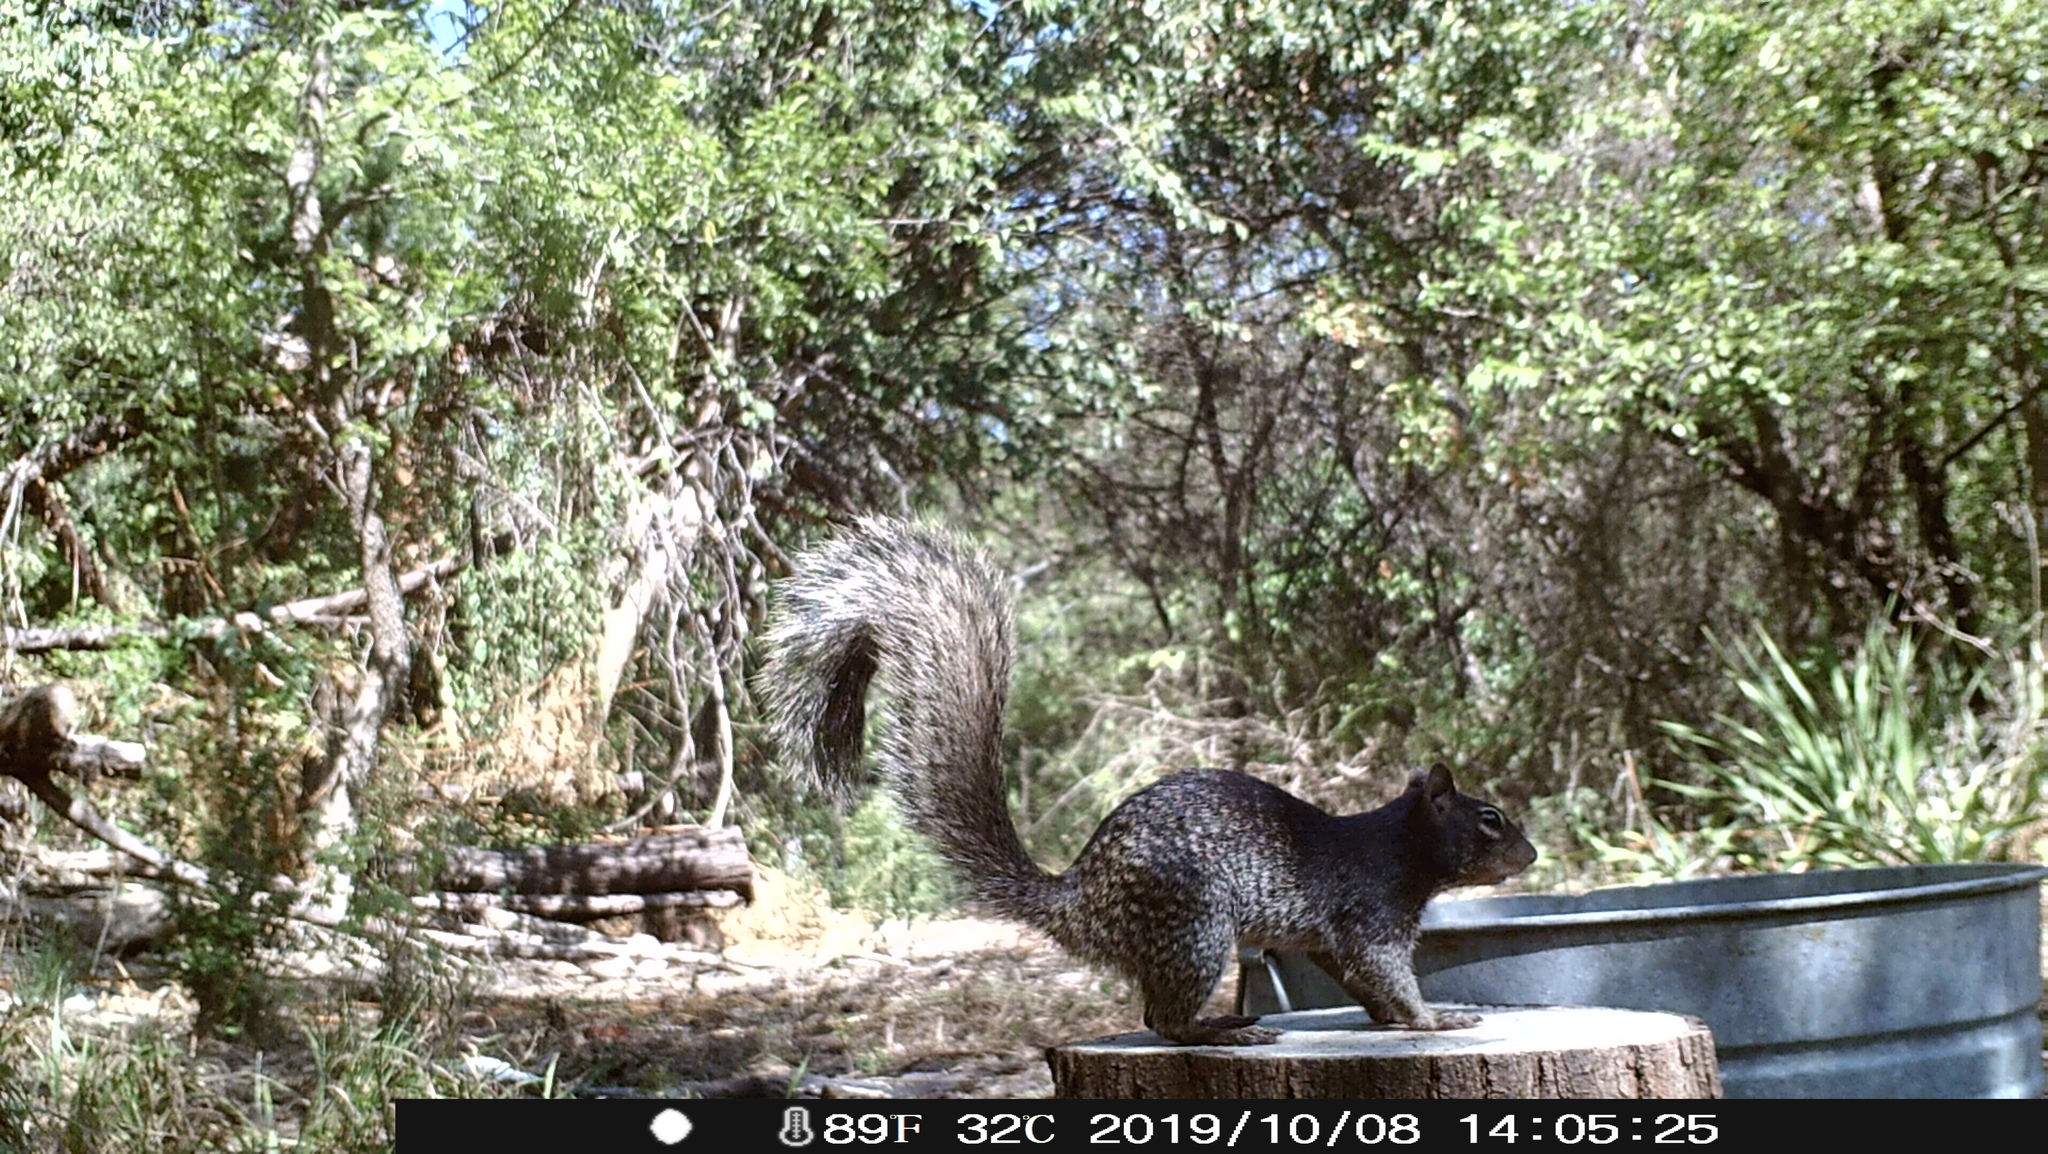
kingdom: Animalia
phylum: Chordata
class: Mammalia
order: Rodentia
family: Sciuridae
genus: Otospermophilus
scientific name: Otospermophilus variegatus
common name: Rock squirrel
